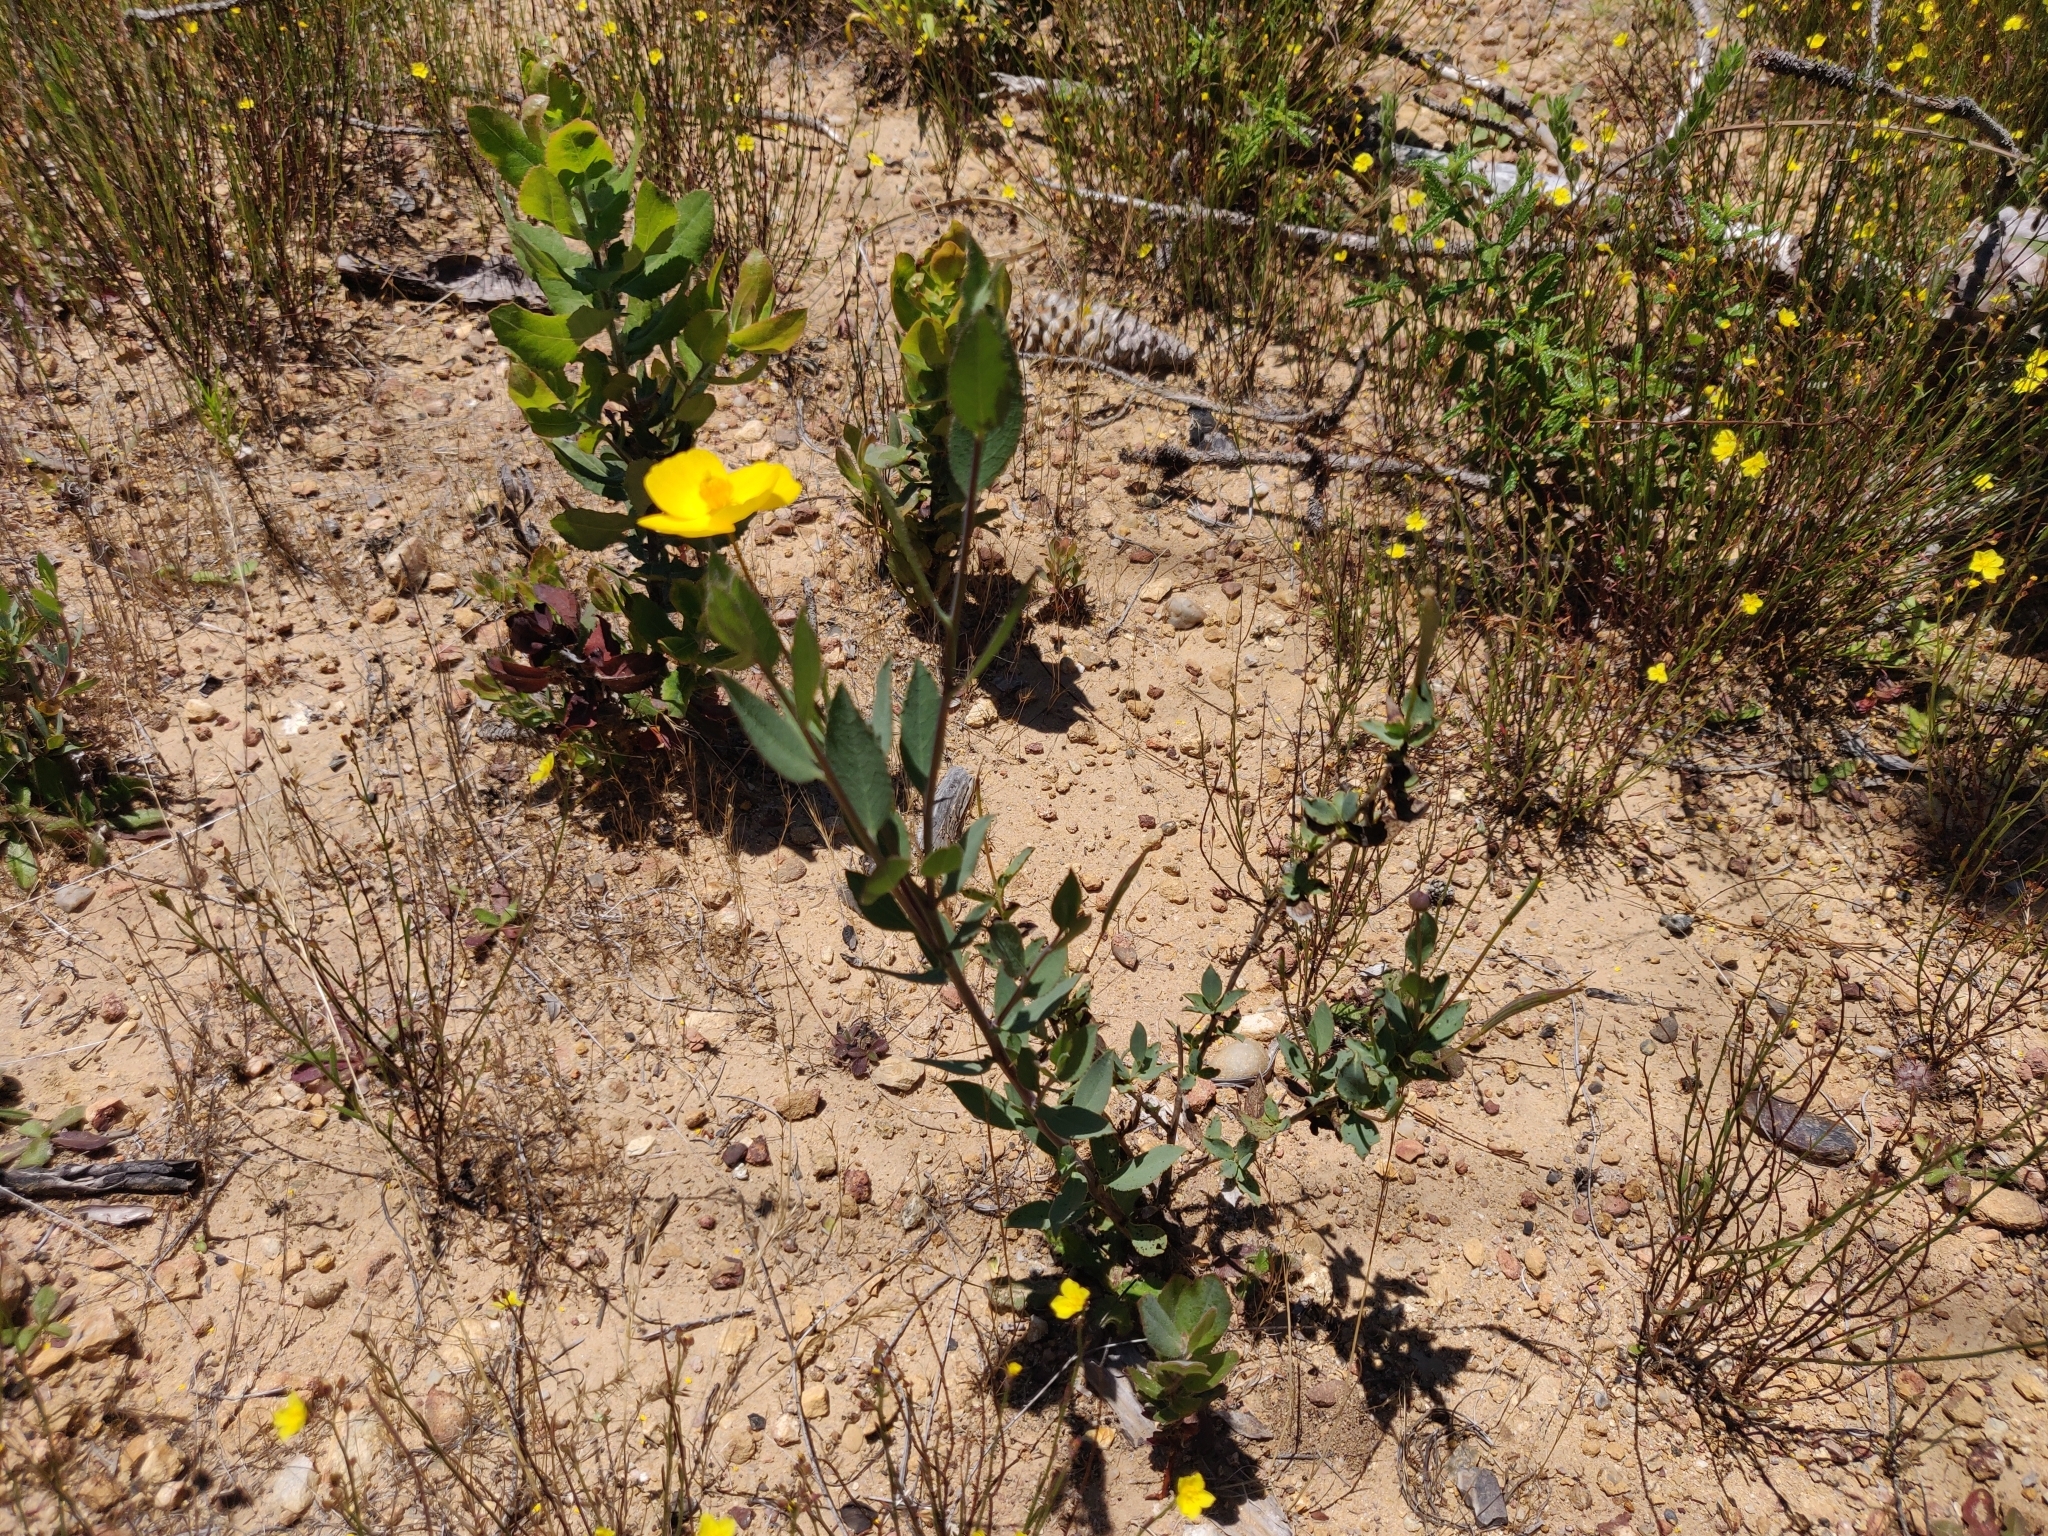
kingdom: Plantae
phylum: Tracheophyta
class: Magnoliopsida
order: Ranunculales
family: Papaveraceae
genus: Dendromecon
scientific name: Dendromecon rigida
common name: Tree poppy
